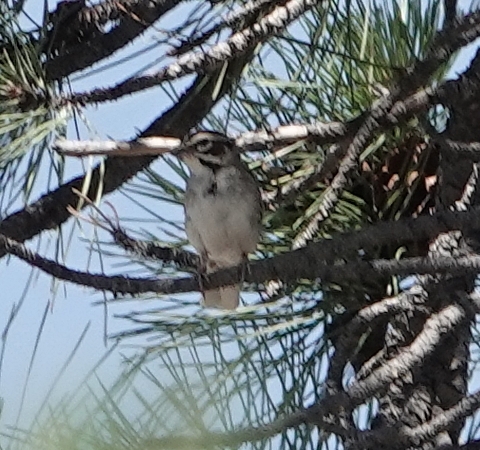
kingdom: Animalia
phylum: Chordata
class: Aves
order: Passeriformes
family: Passerellidae
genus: Chondestes
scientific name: Chondestes grammacus
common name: Lark sparrow
